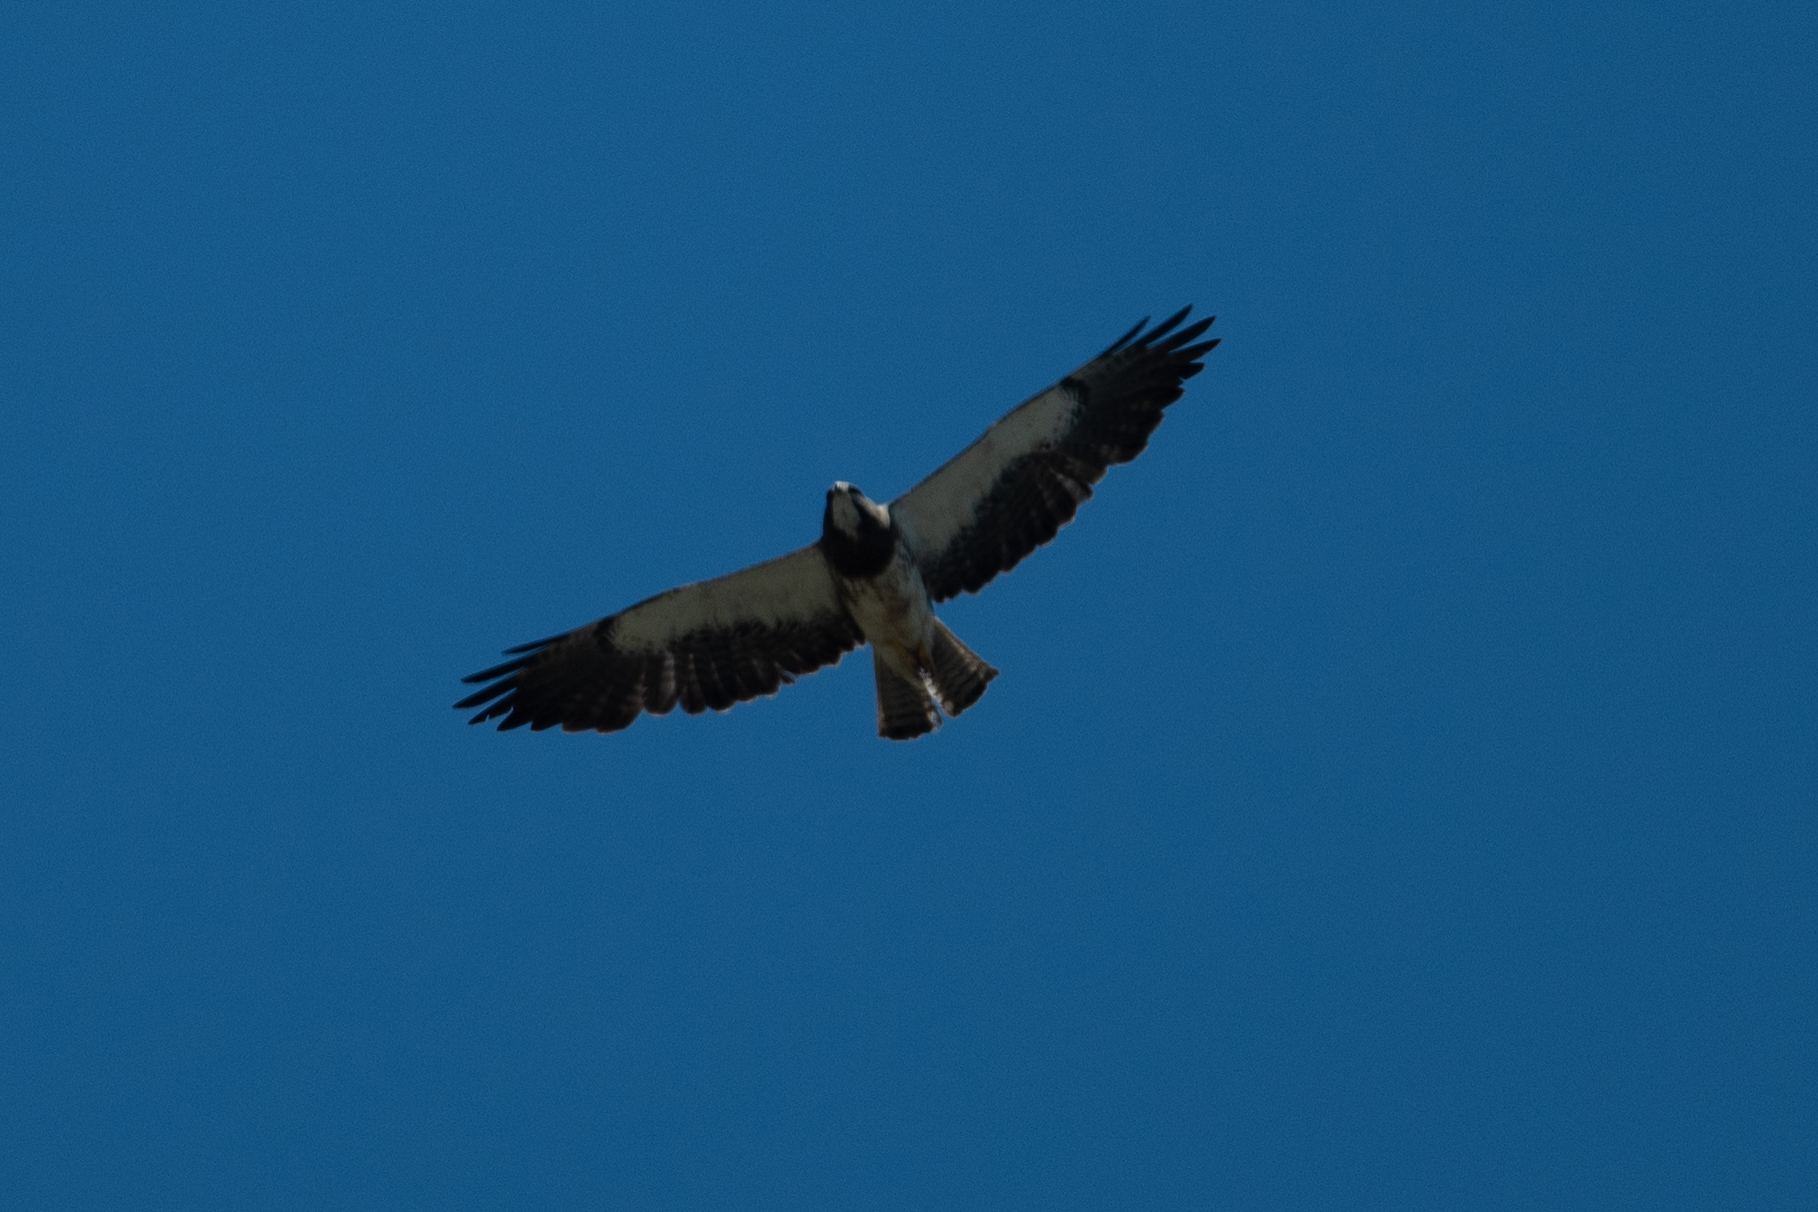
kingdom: Animalia
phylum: Chordata
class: Aves
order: Accipitriformes
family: Accipitridae
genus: Buteo
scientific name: Buteo swainsoni
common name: Swainson's hawk
